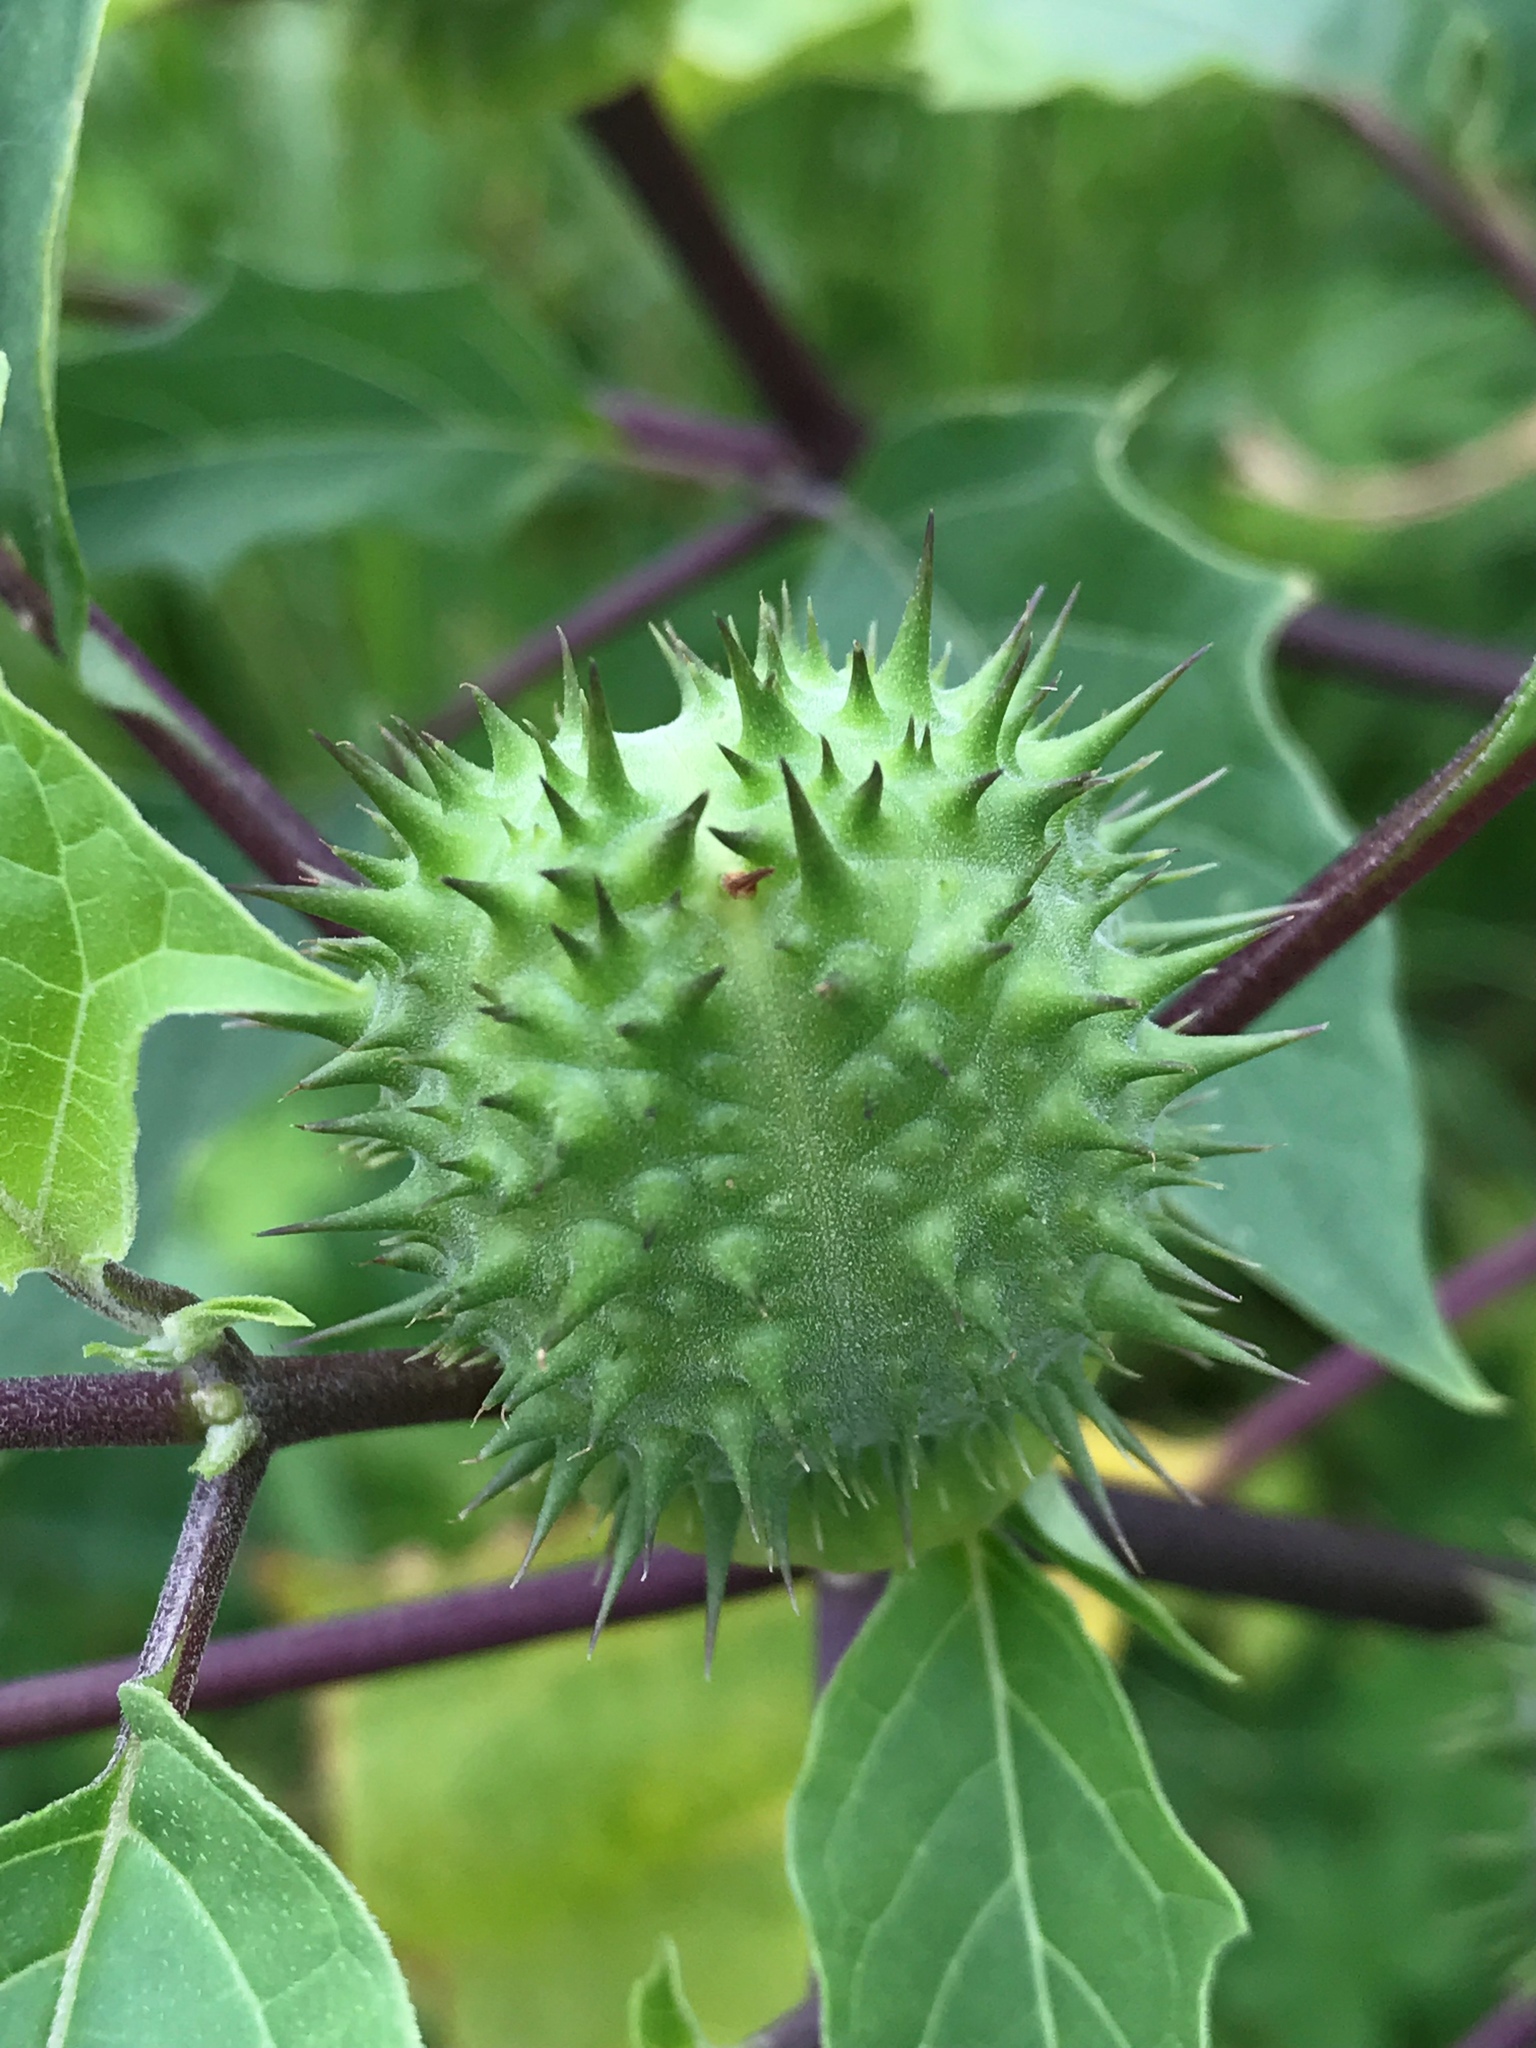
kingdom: Plantae
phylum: Tracheophyta
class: Magnoliopsida
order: Solanales
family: Solanaceae
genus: Datura
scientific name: Datura stramonium
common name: Thorn-apple
